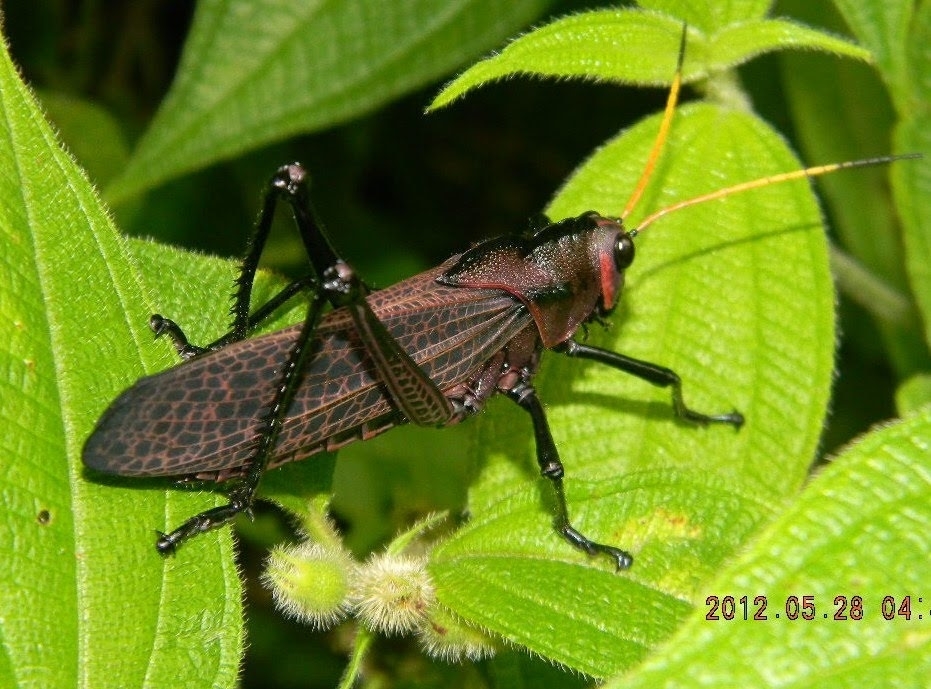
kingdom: Animalia
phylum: Arthropoda
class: Insecta
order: Orthoptera
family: Romaleidae
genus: Romalea
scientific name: Romalea
